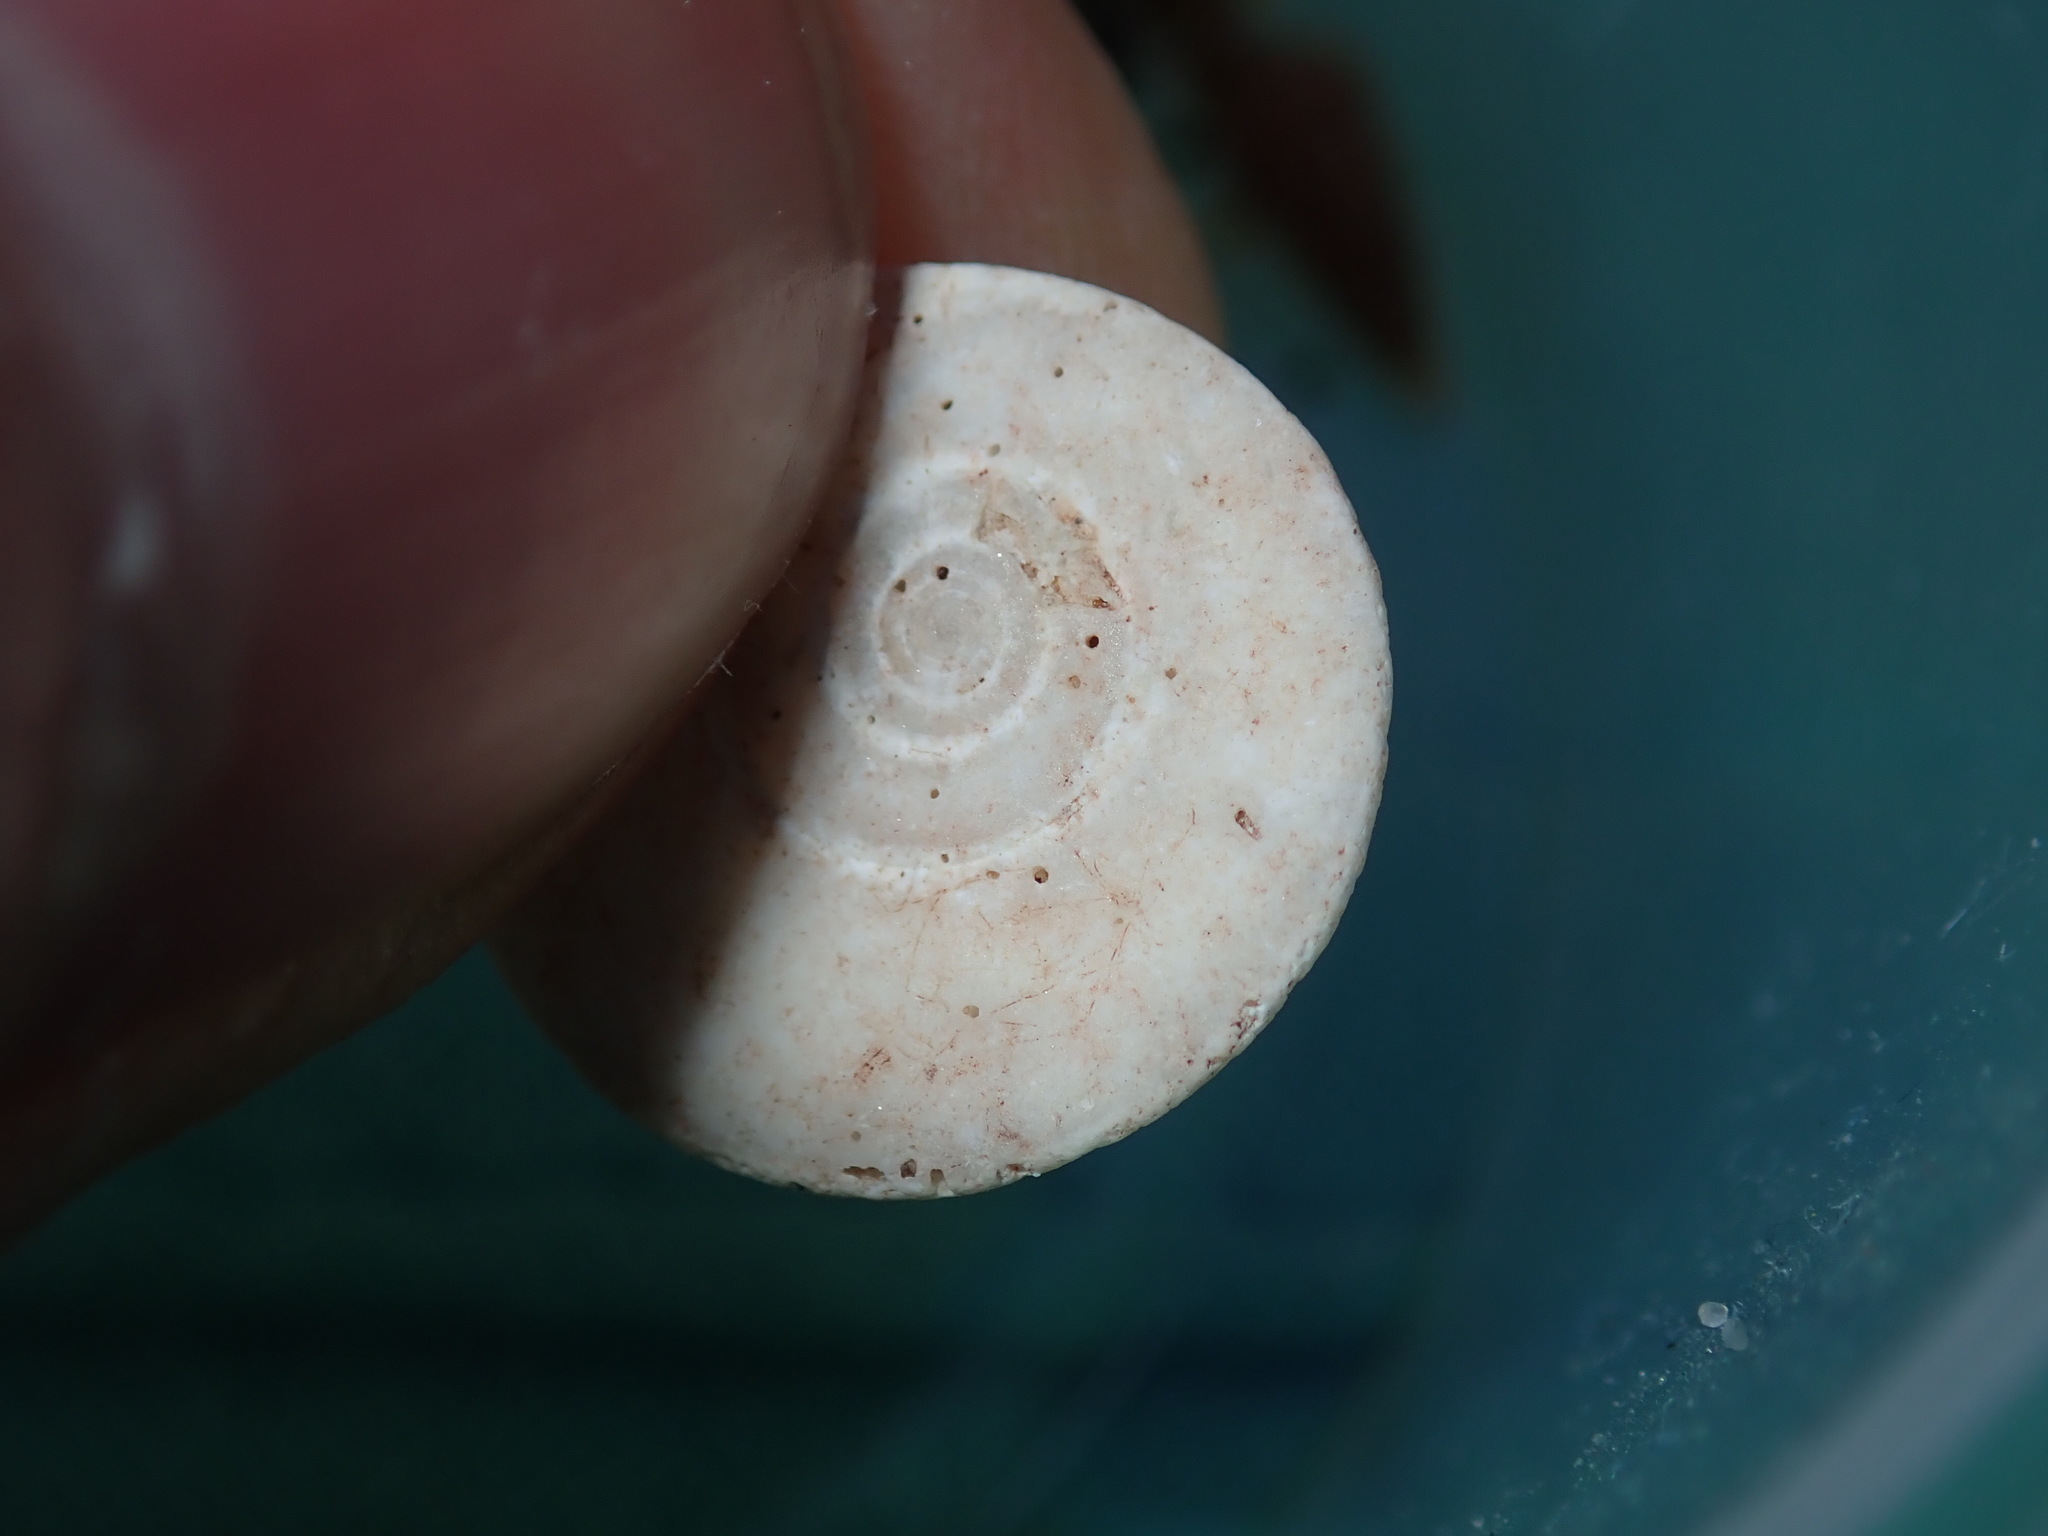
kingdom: Animalia
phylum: Mollusca
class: Gastropoda
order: Trochida
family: Turbinidae
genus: Lunella
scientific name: Lunella undulata
